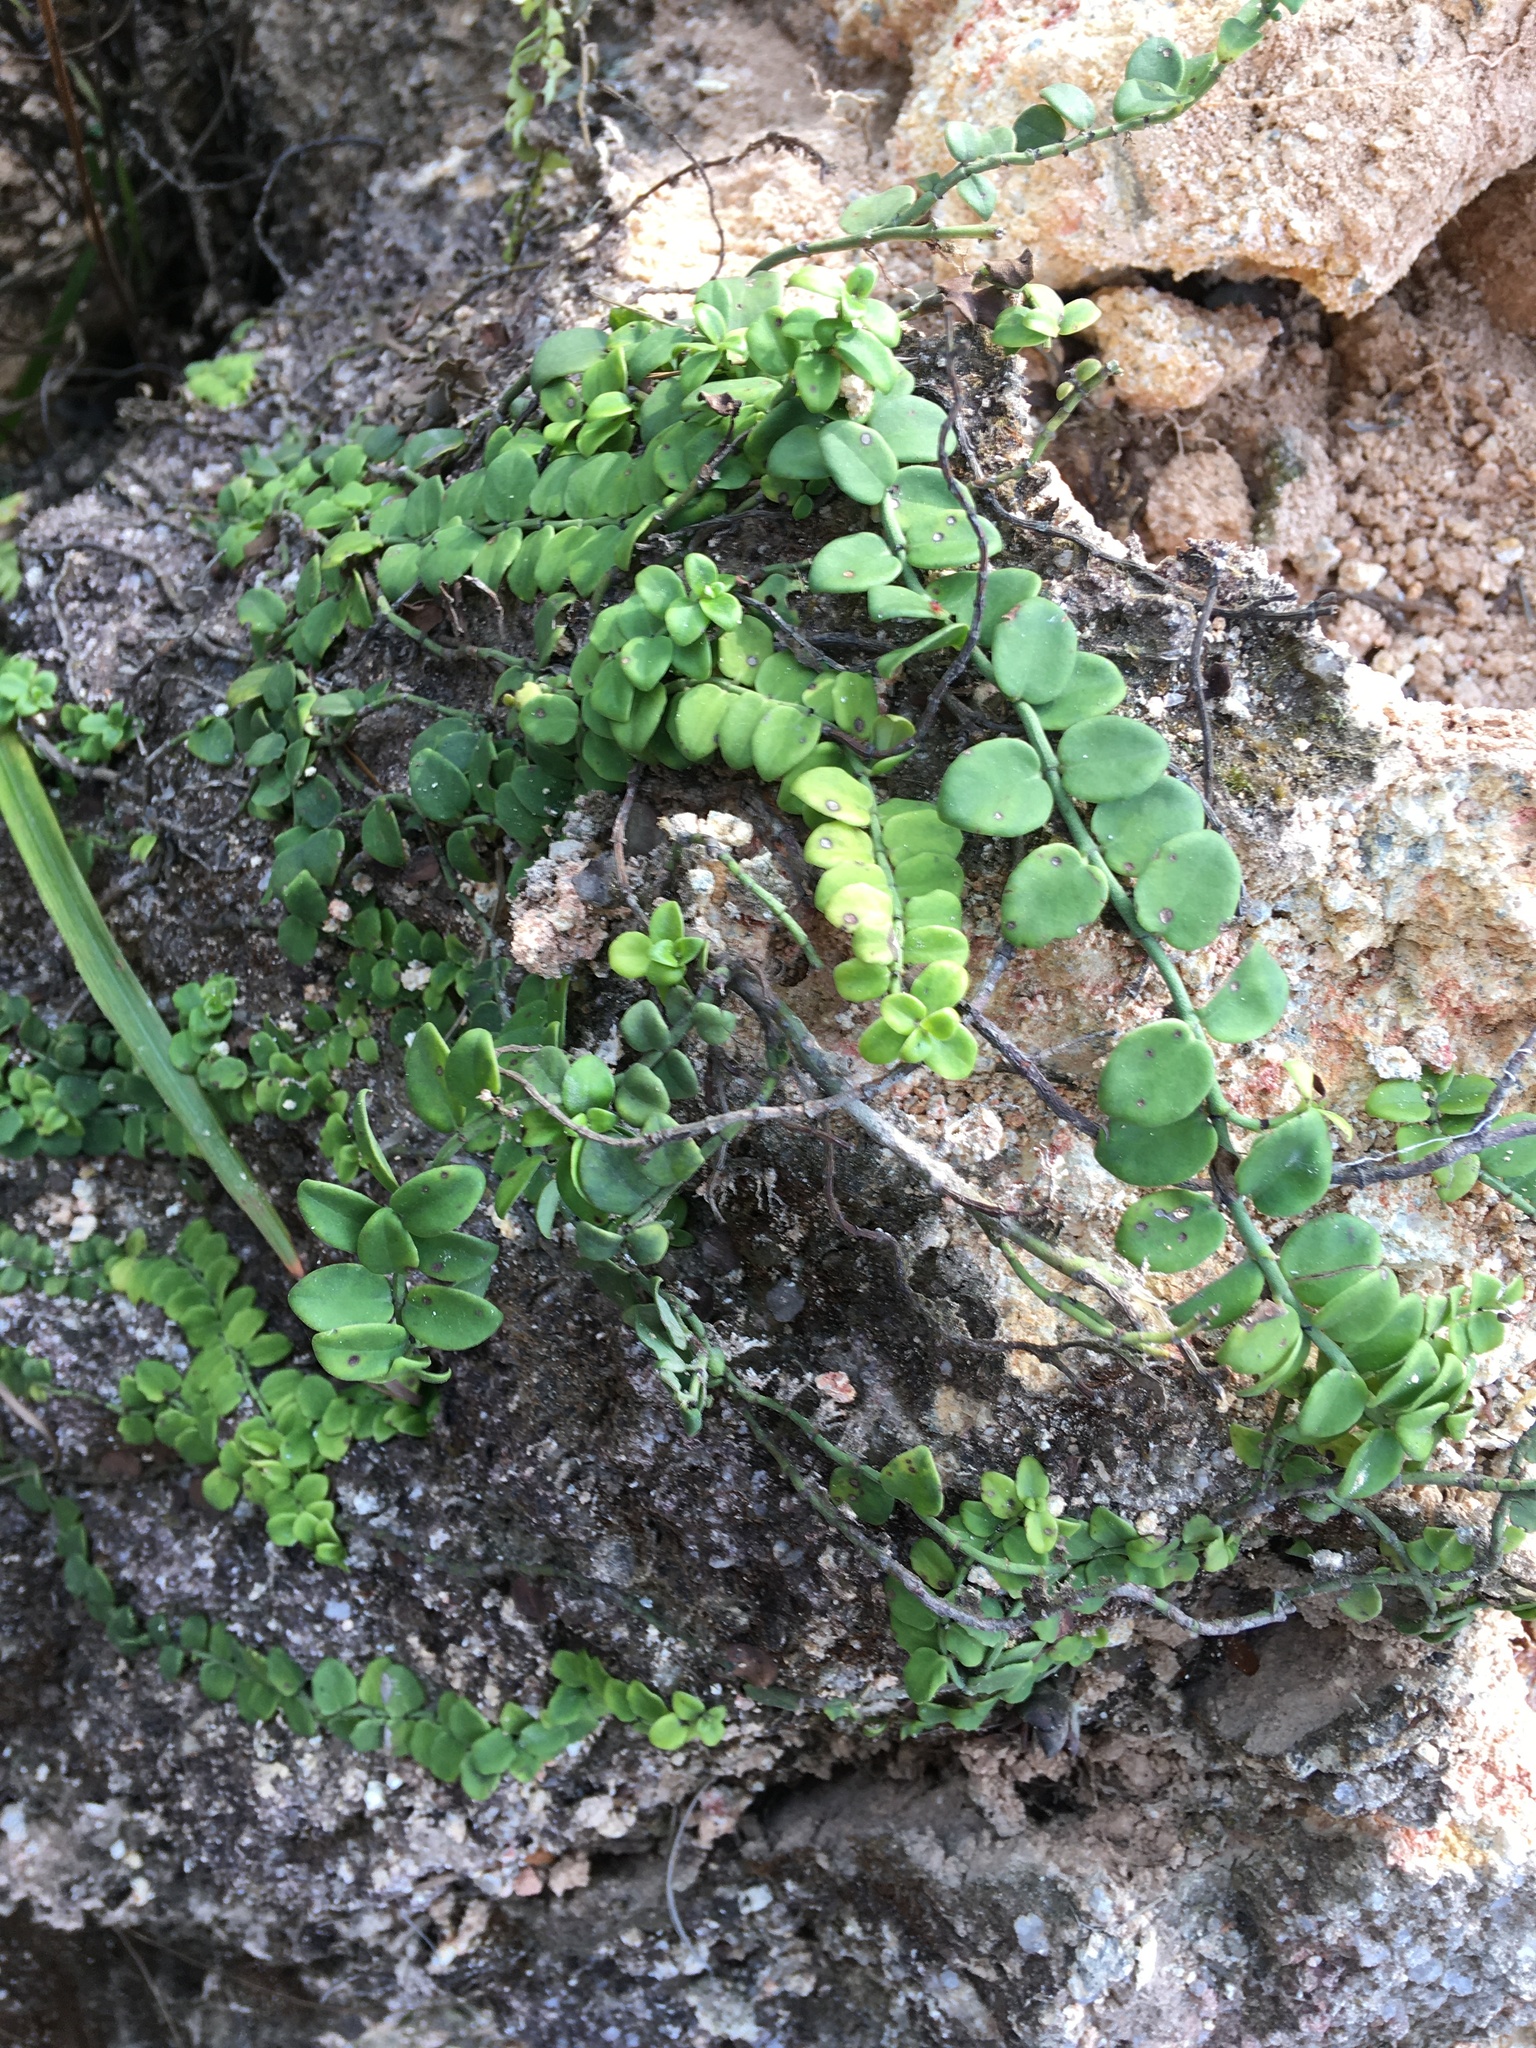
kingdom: Plantae
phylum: Tracheophyta
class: Magnoliopsida
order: Gentianales
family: Rubiaceae
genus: Psychotria
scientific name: Psychotria serpens
